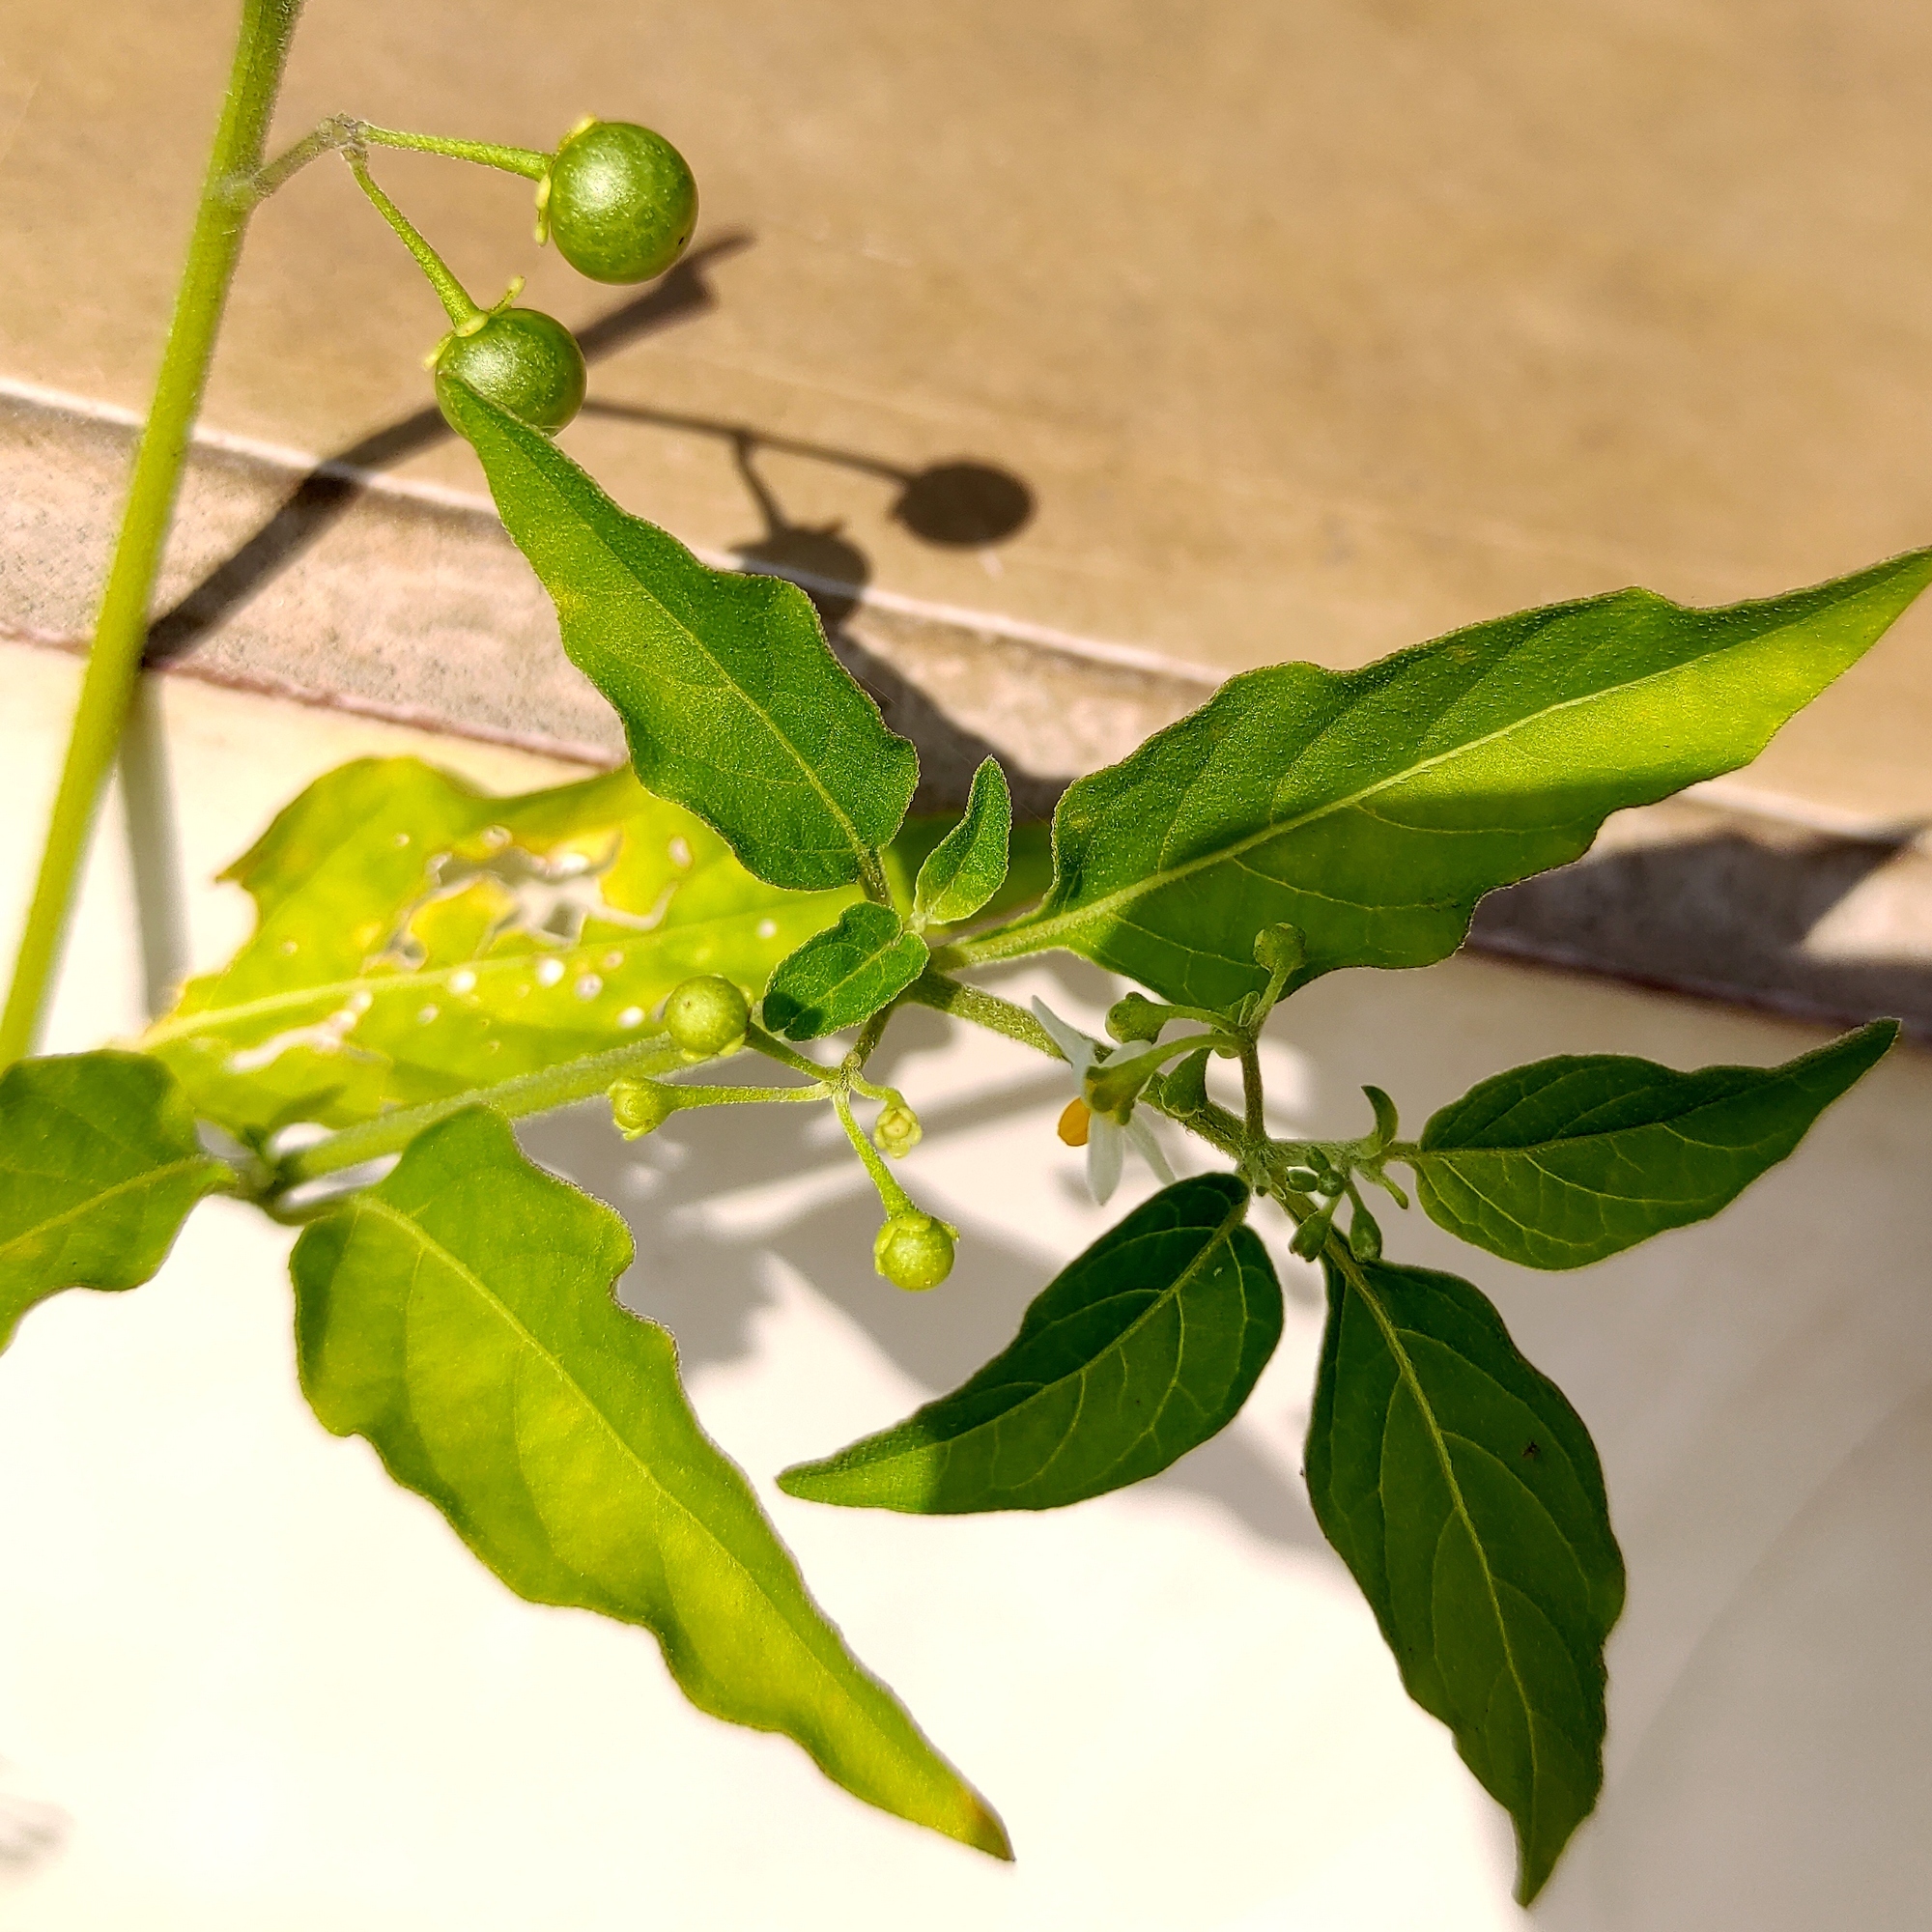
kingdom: Plantae
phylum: Tracheophyta
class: Magnoliopsida
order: Solanales
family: Solanaceae
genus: Solanum
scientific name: Solanum americanum
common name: American black nightshade
